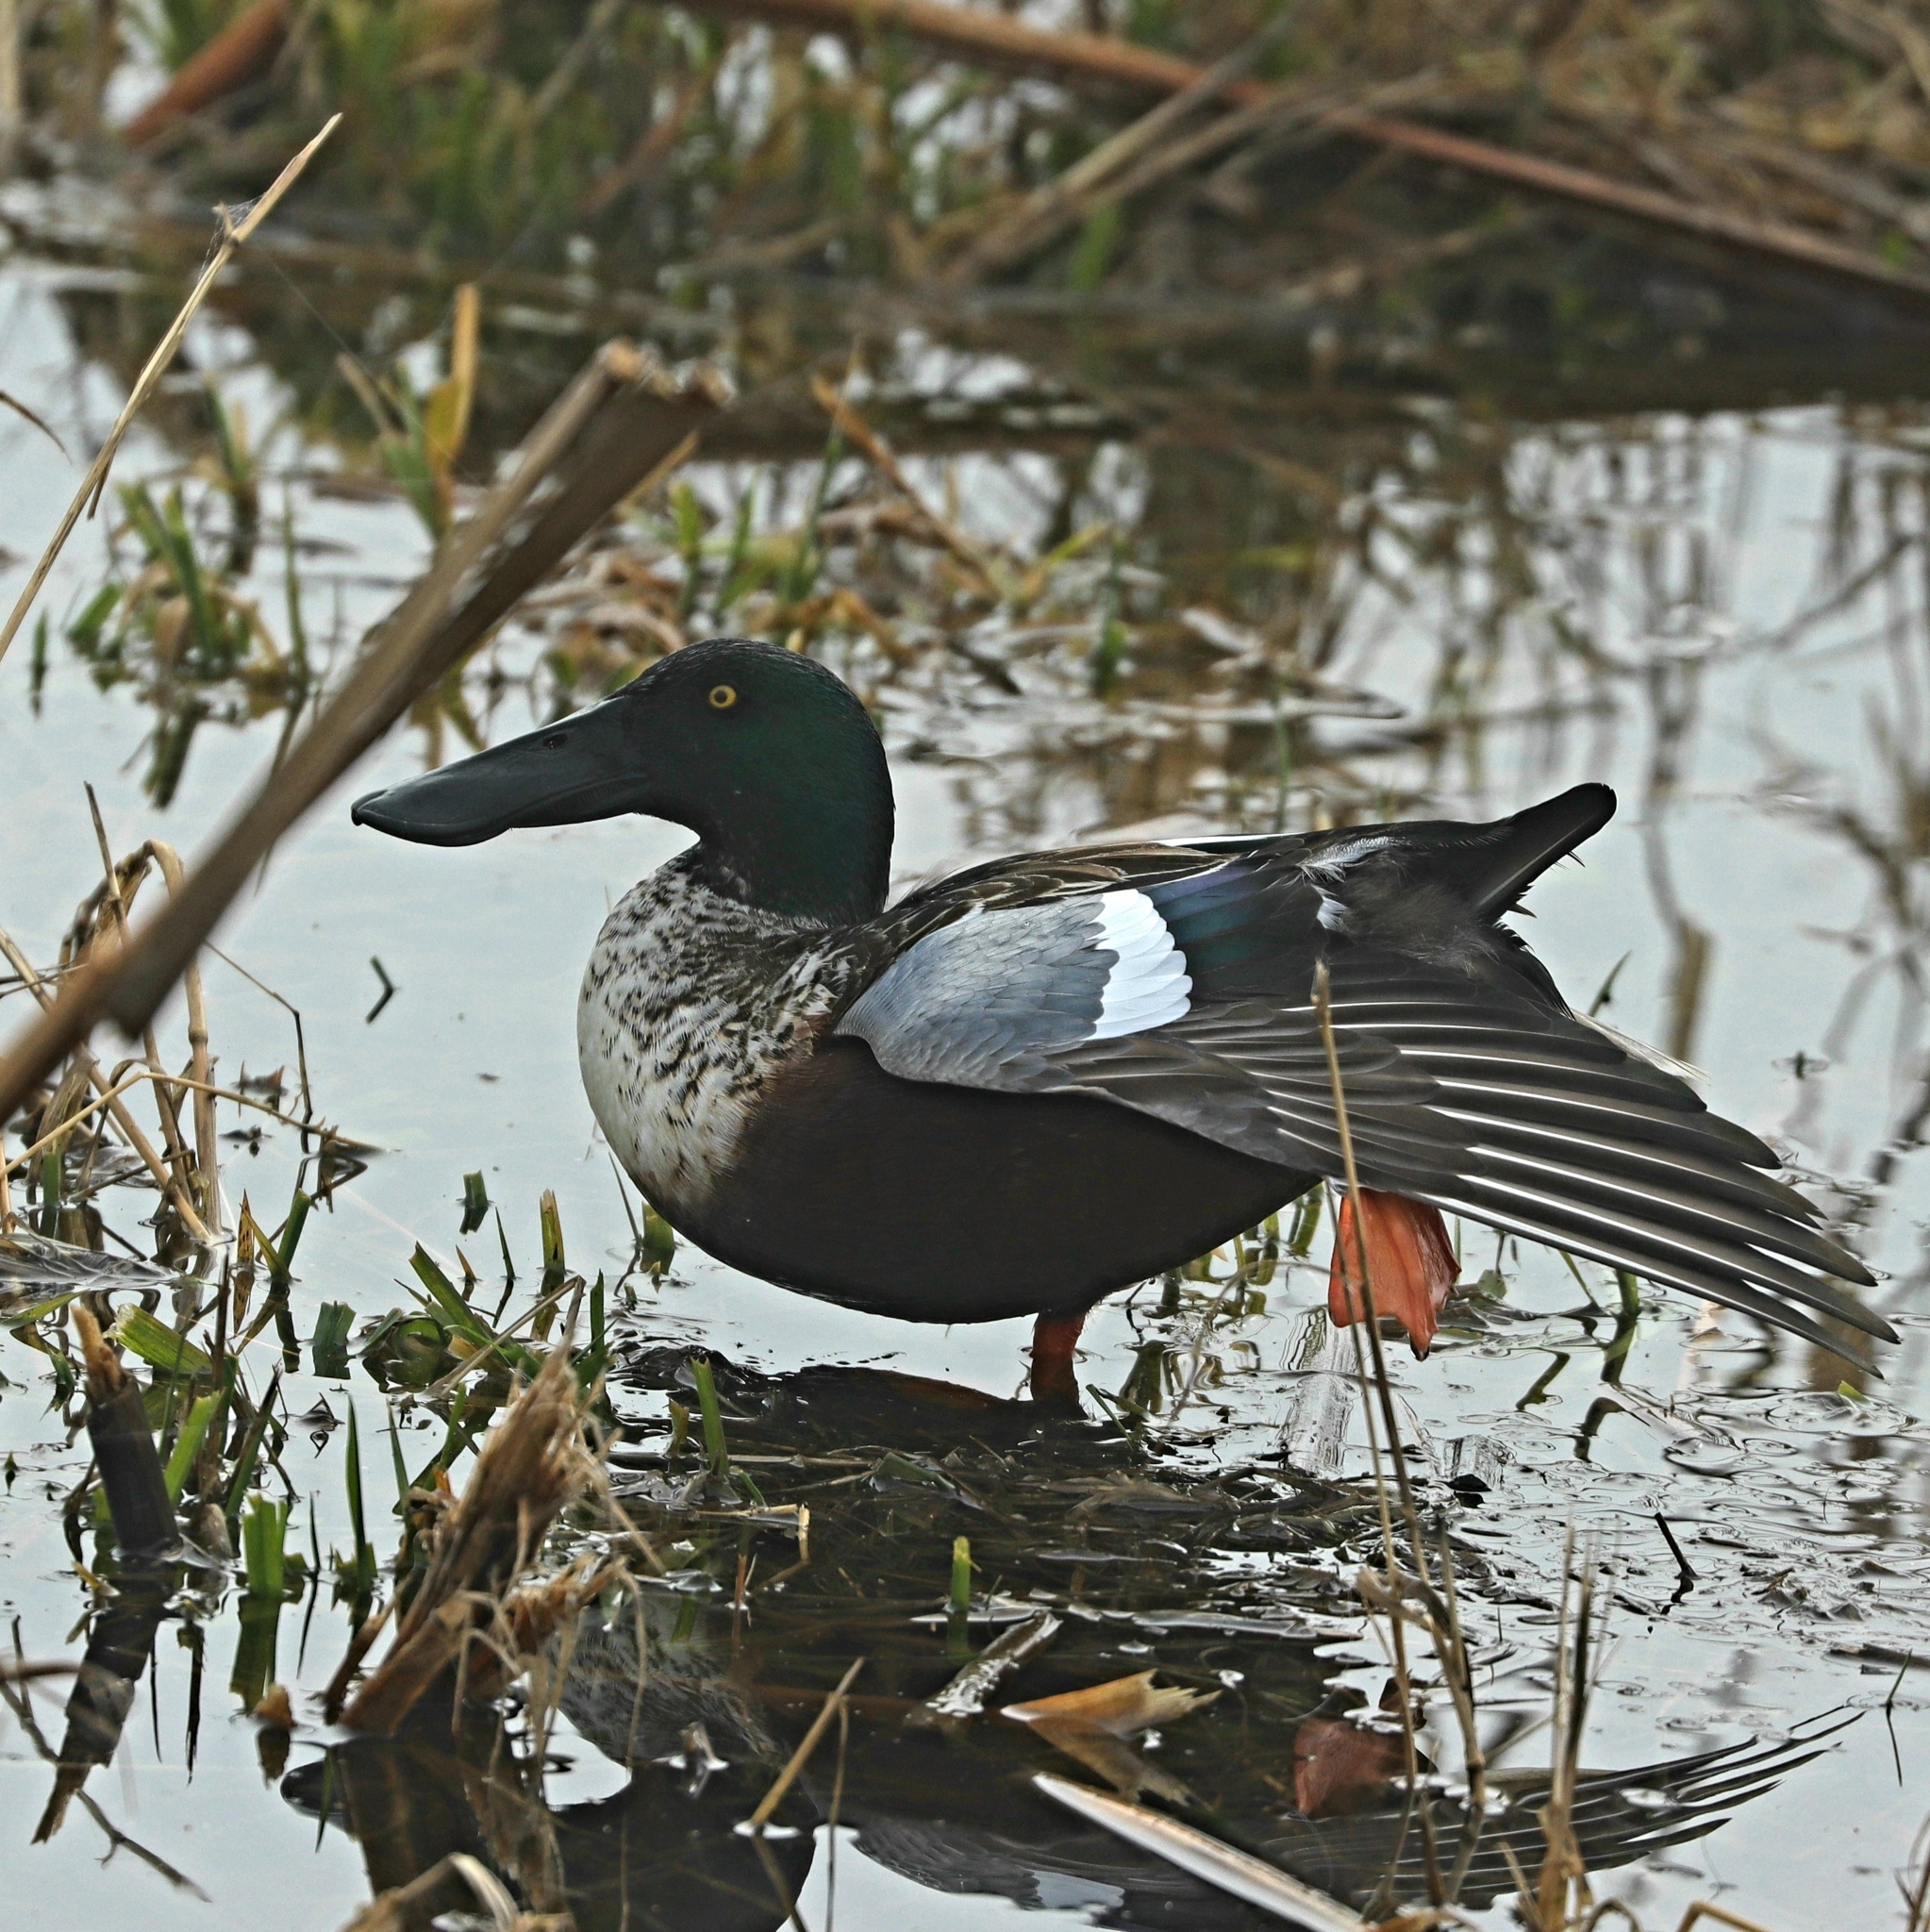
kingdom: Animalia
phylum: Chordata
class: Aves
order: Anseriformes
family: Anatidae
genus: Spatula
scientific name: Spatula clypeata
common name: Northern shoveler
